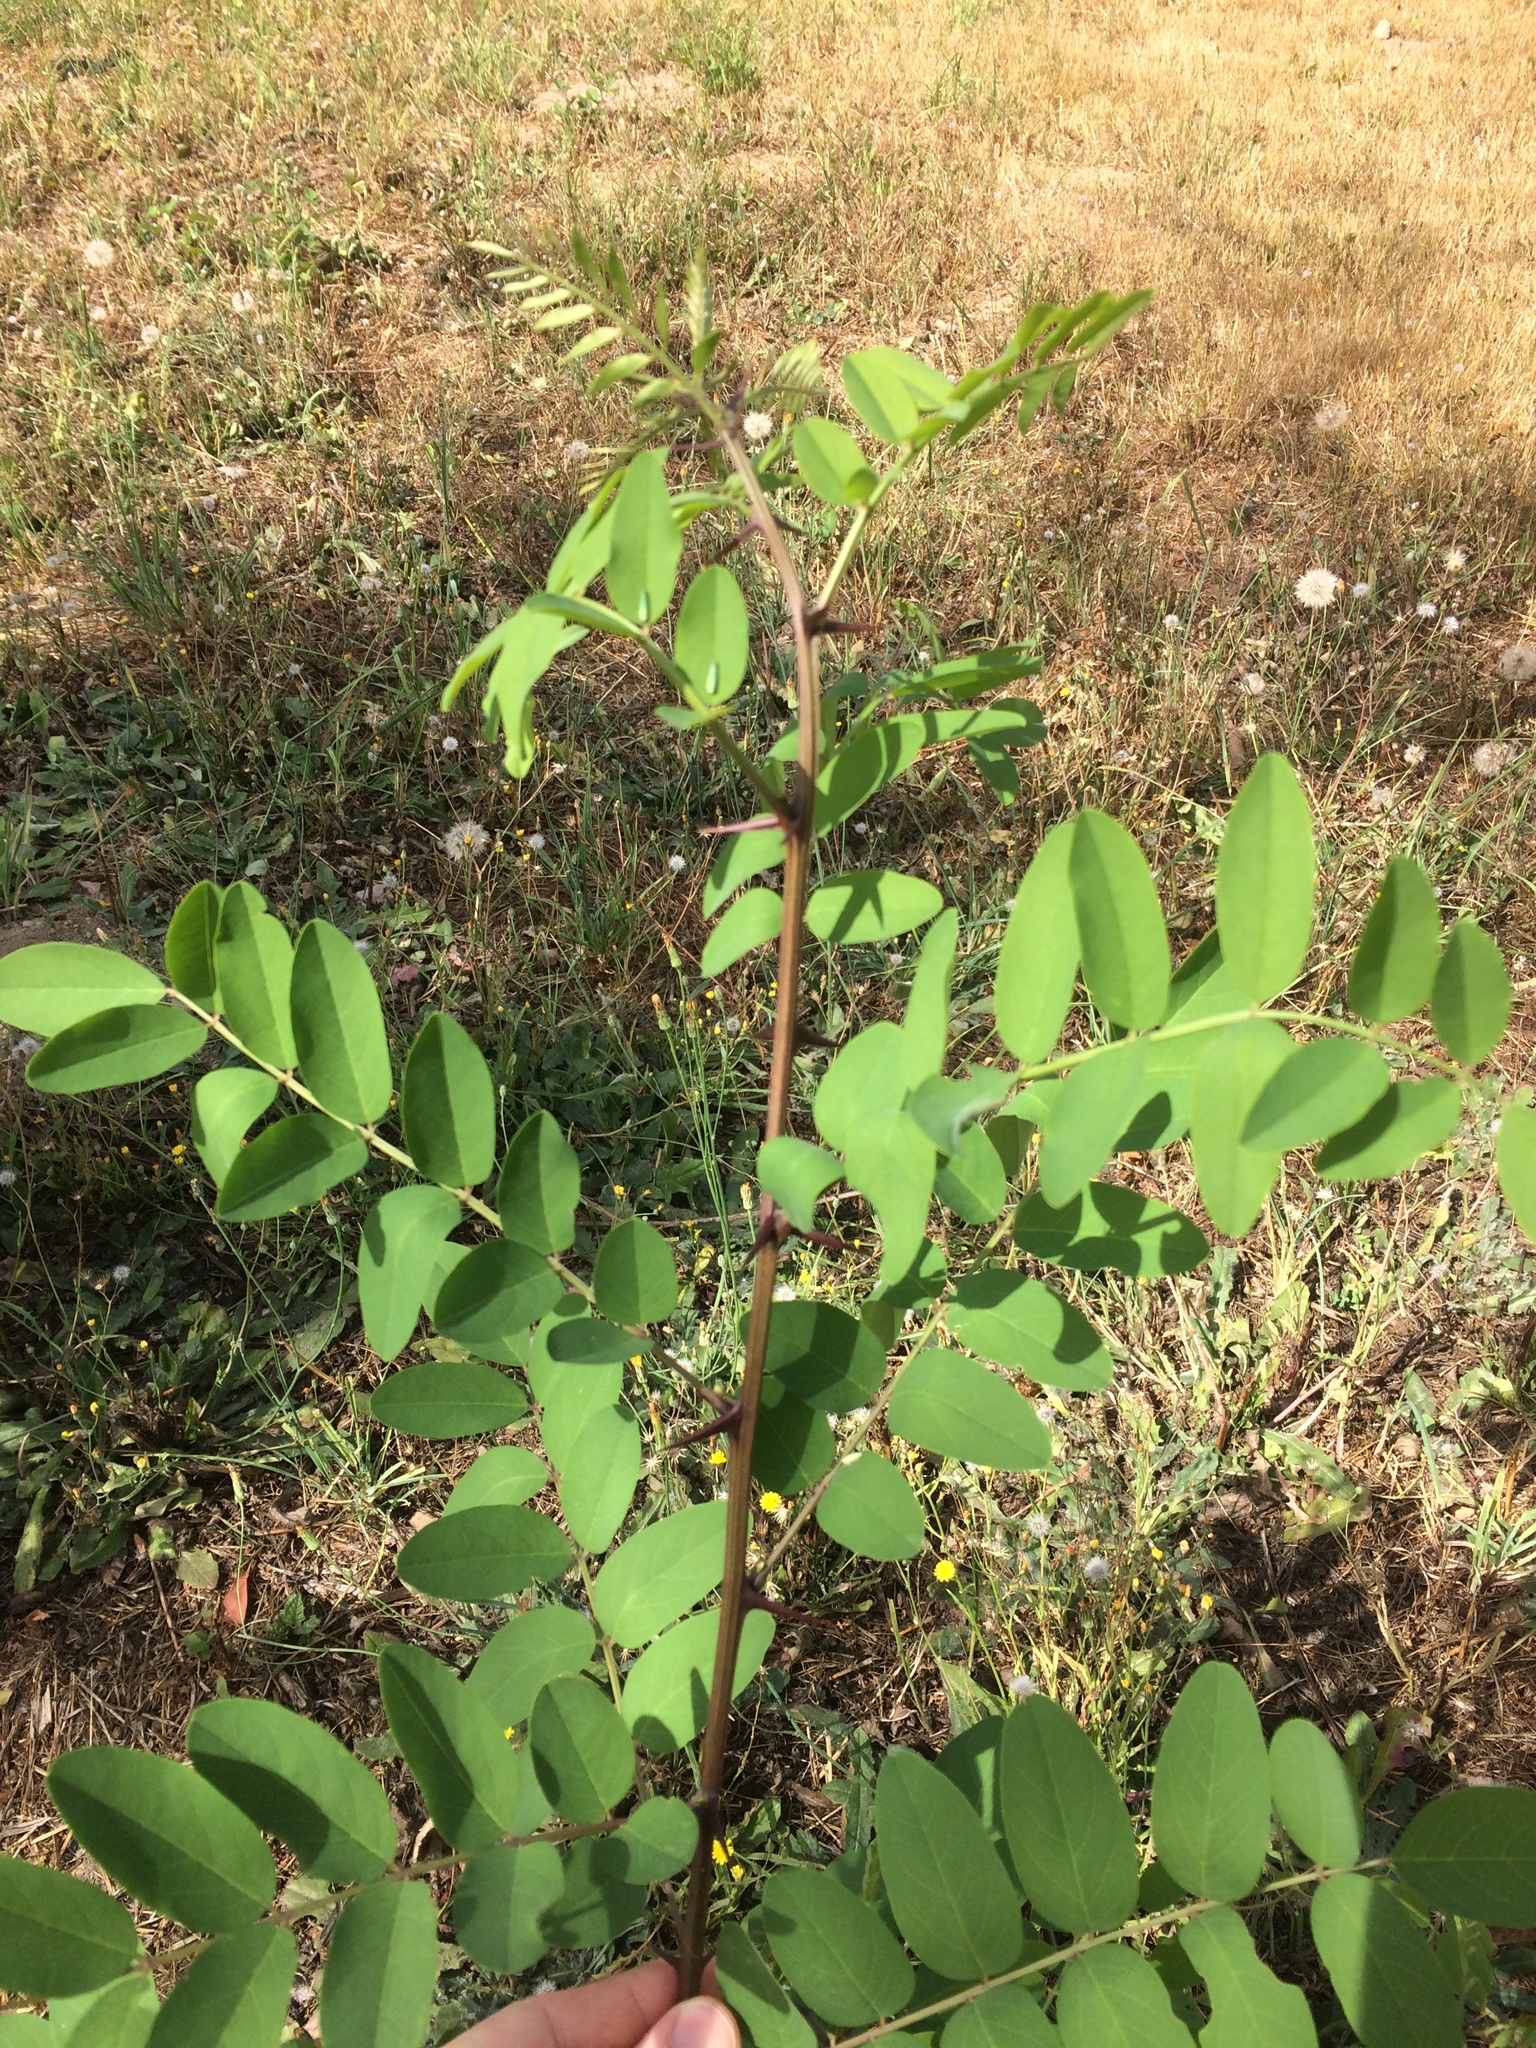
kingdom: Plantae
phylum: Tracheophyta
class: Magnoliopsida
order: Fabales
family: Fabaceae
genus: Robinia
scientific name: Robinia pseudoacacia
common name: Black locust
